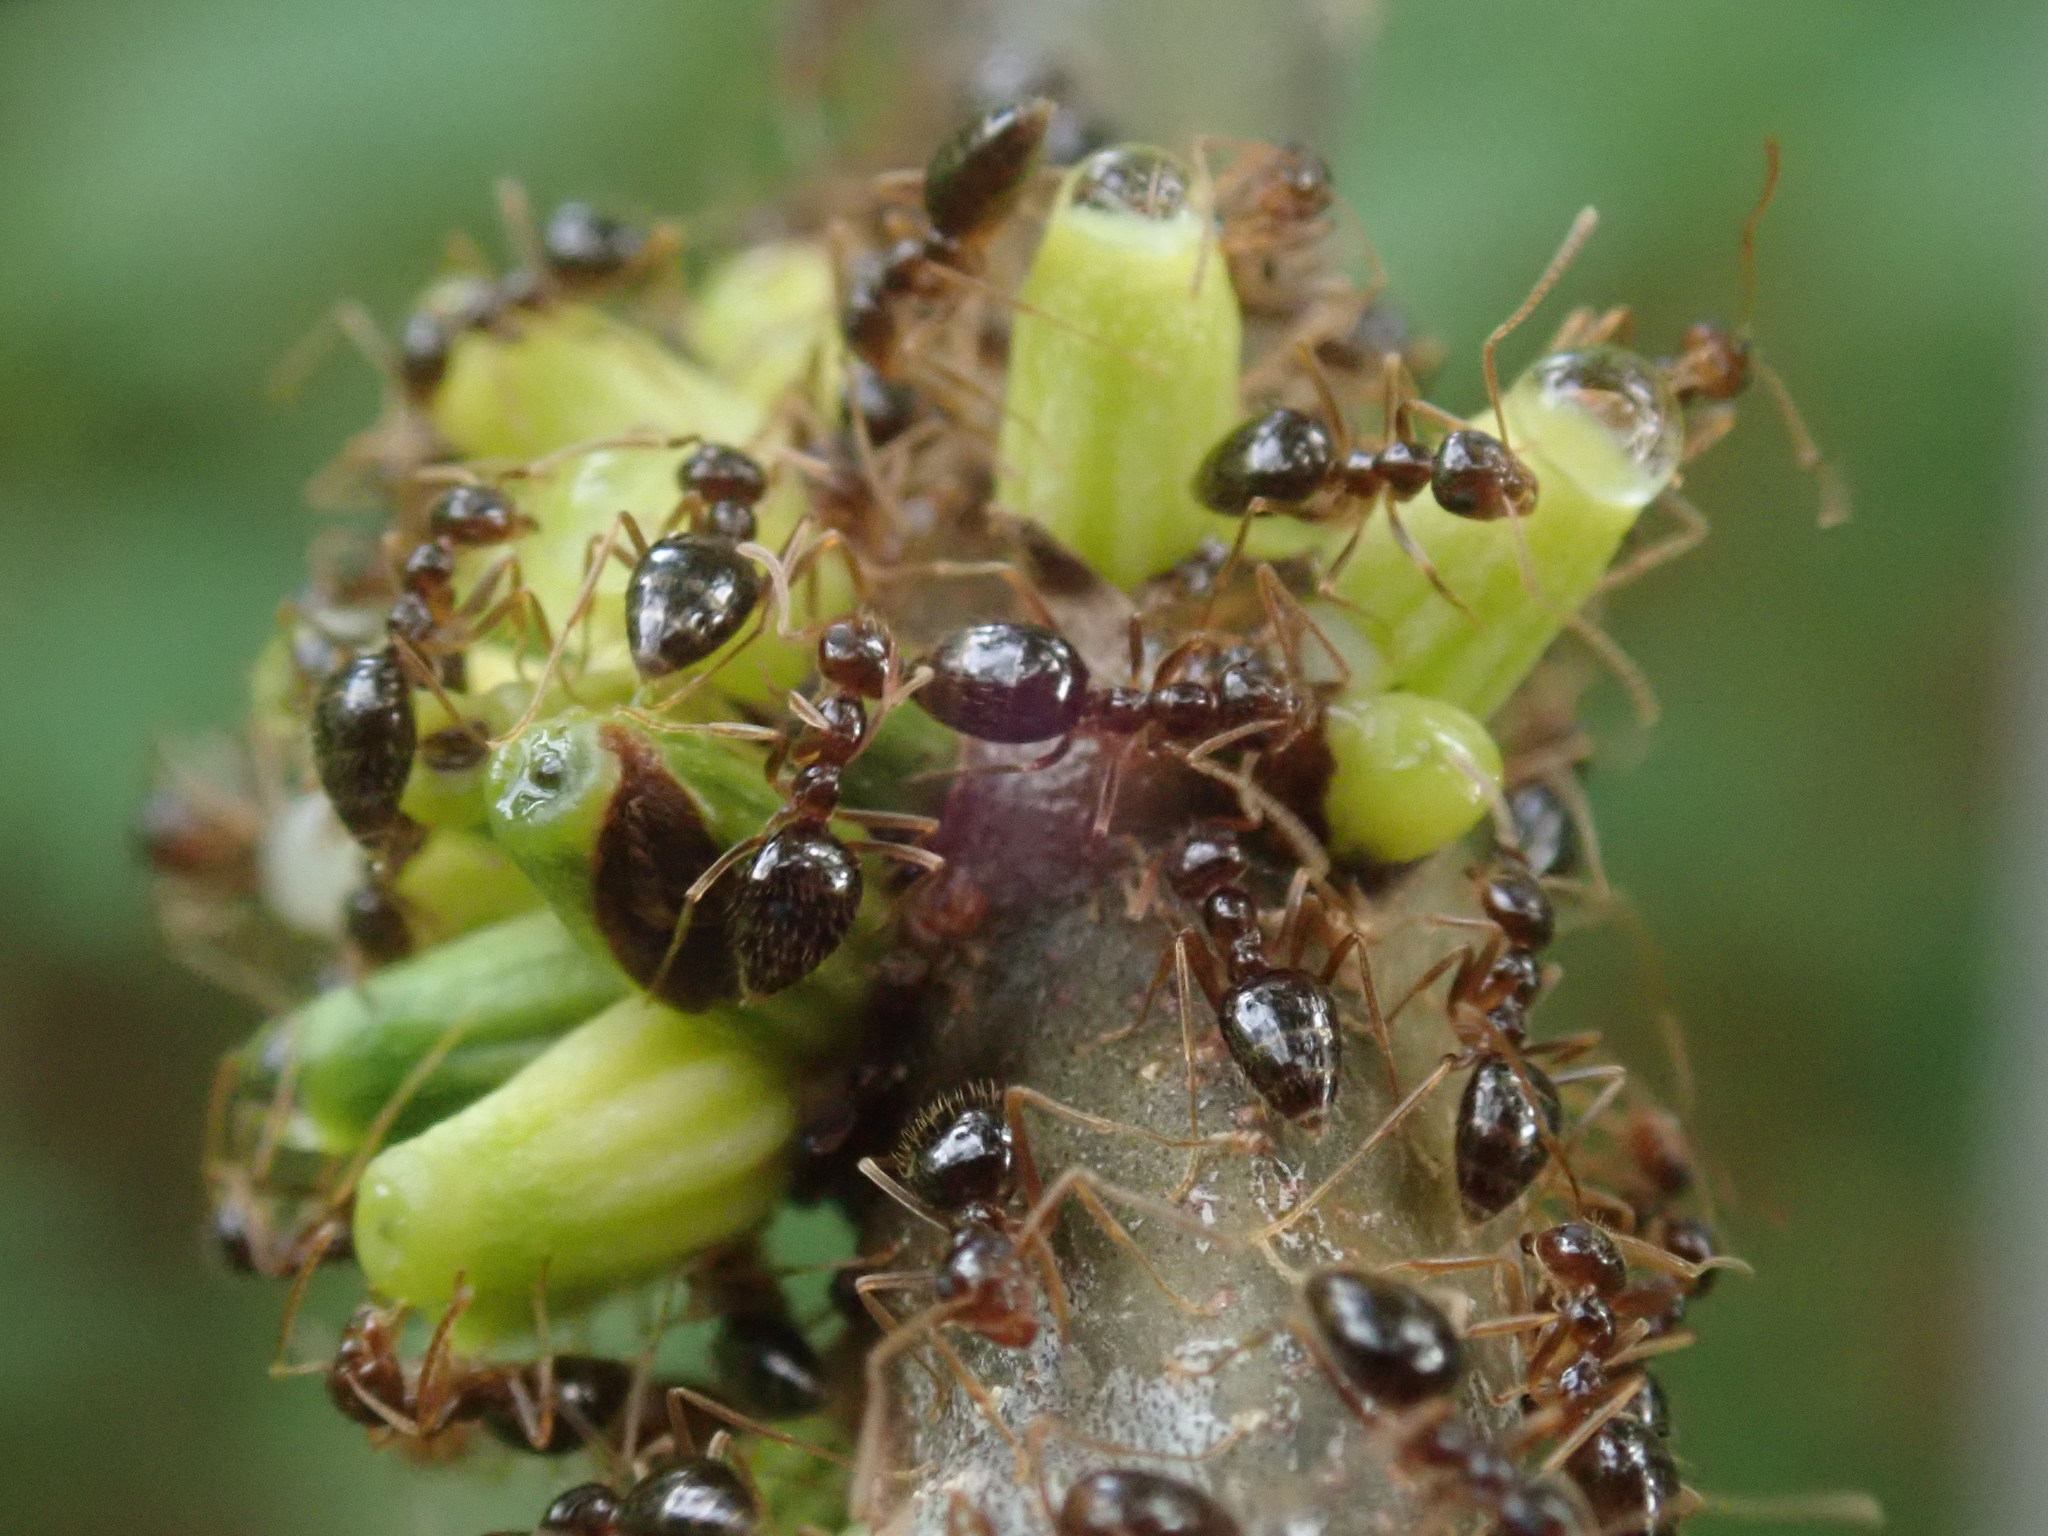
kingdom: Animalia
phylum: Arthropoda
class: Insecta
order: Hymenoptera
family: Formicidae
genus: Prenolepis
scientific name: Prenolepis imparis
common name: Small honey ant
